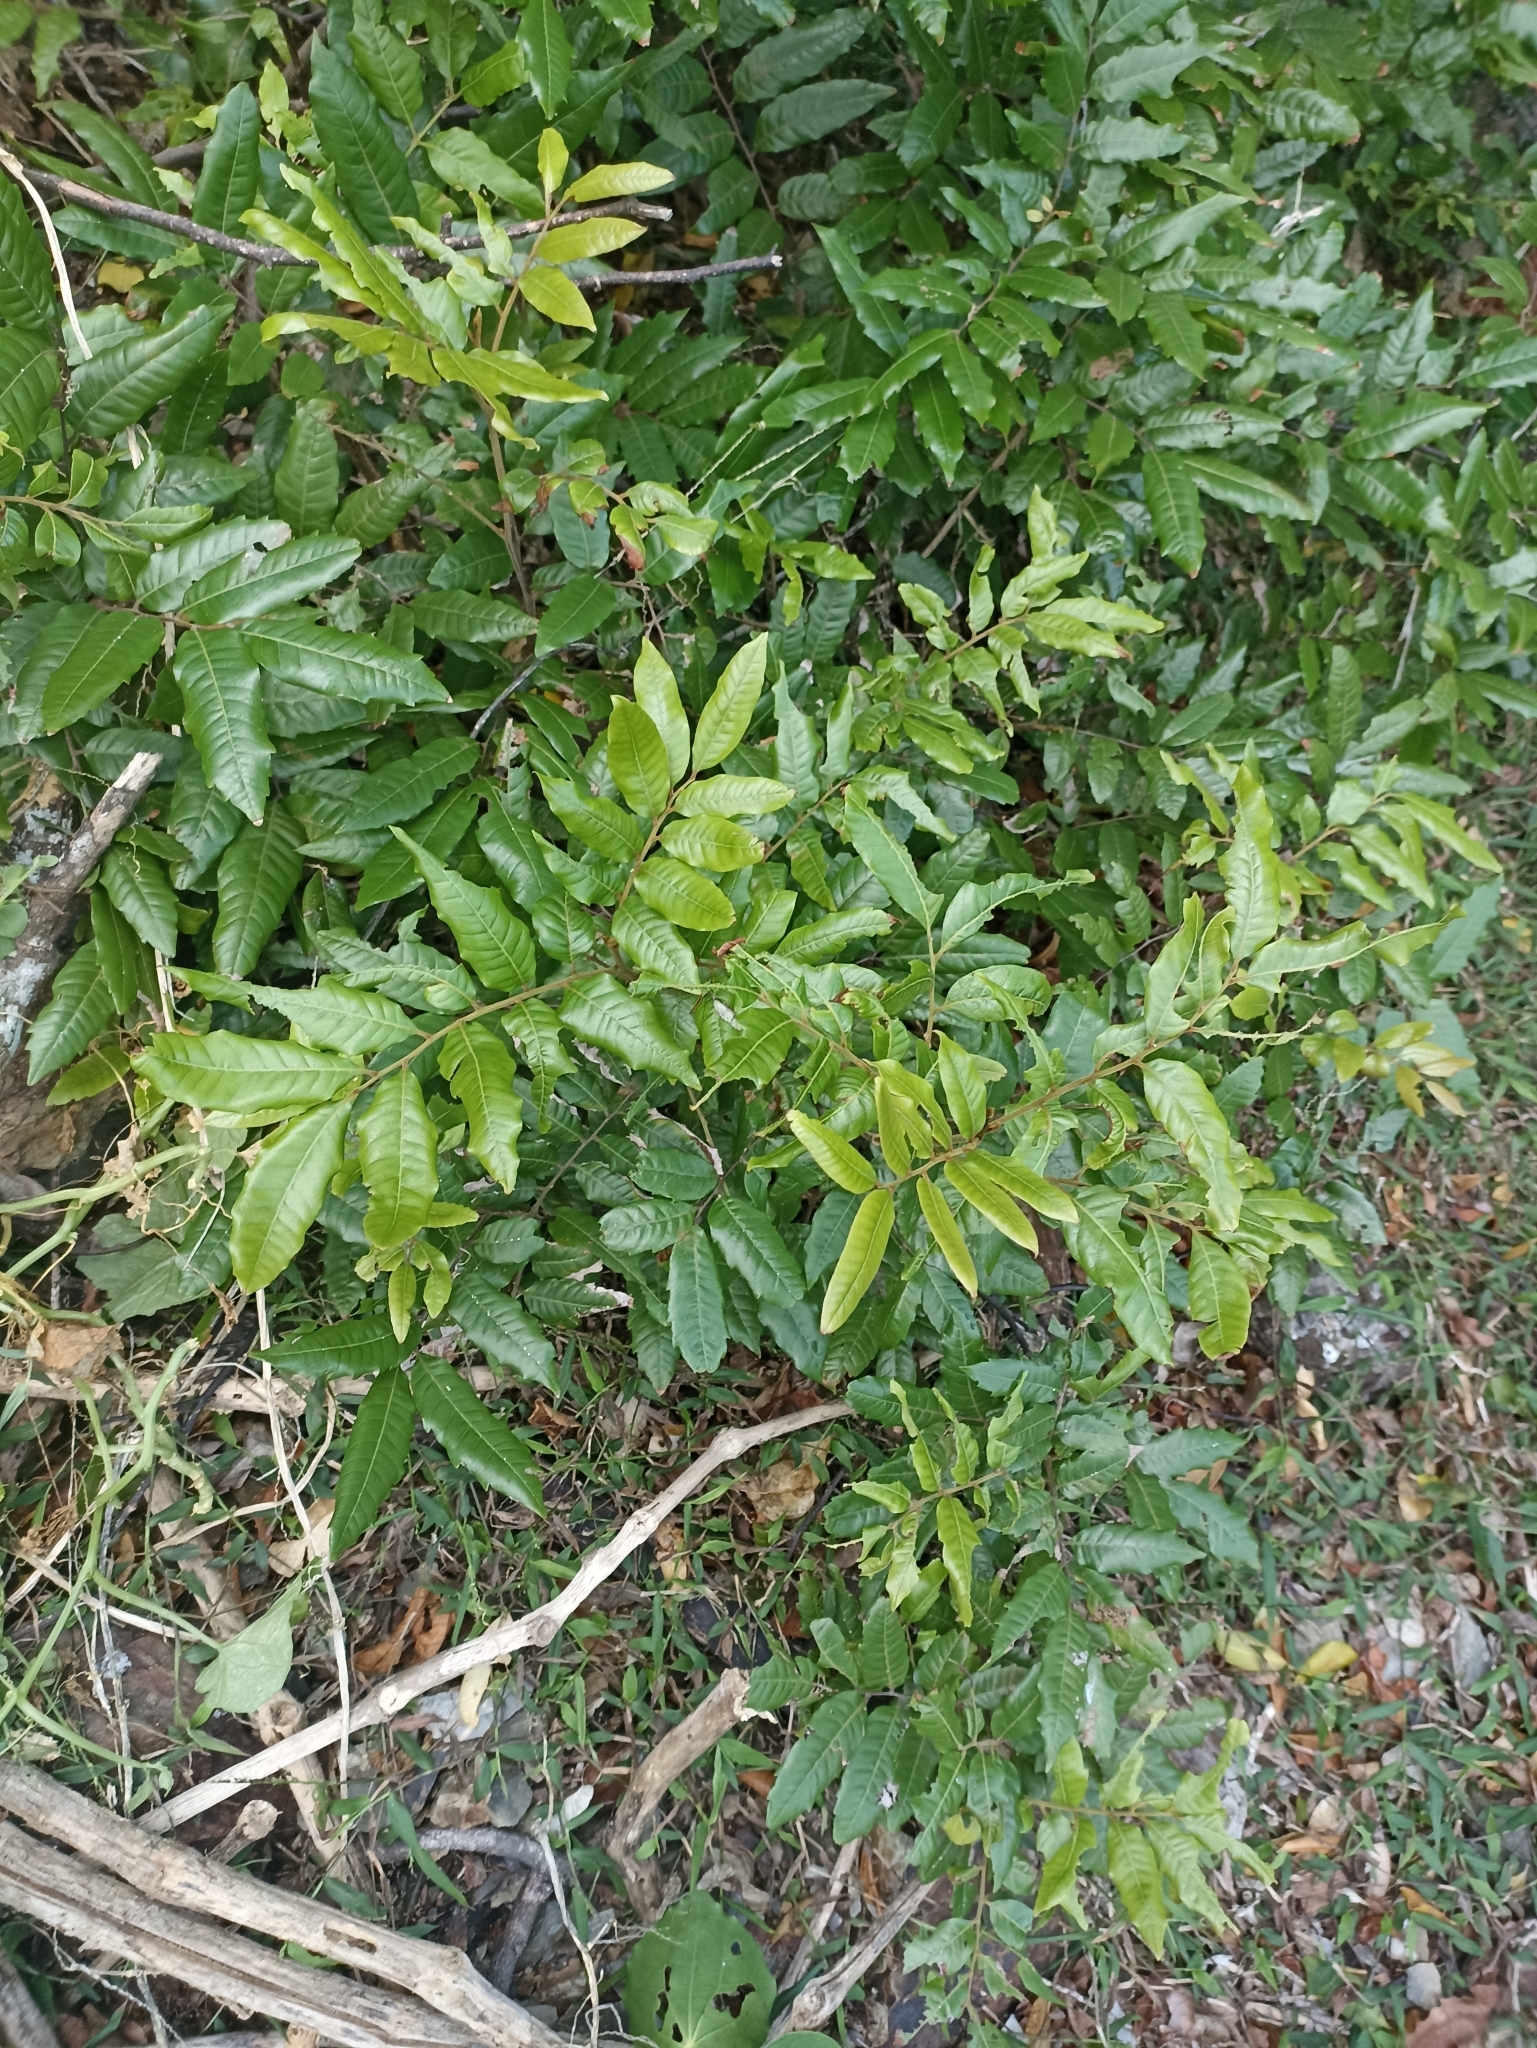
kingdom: Plantae
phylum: Tracheophyta
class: Magnoliopsida
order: Sapindales
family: Sapindaceae
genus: Alectryon
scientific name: Alectryon excelsus
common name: Three kings titoki
